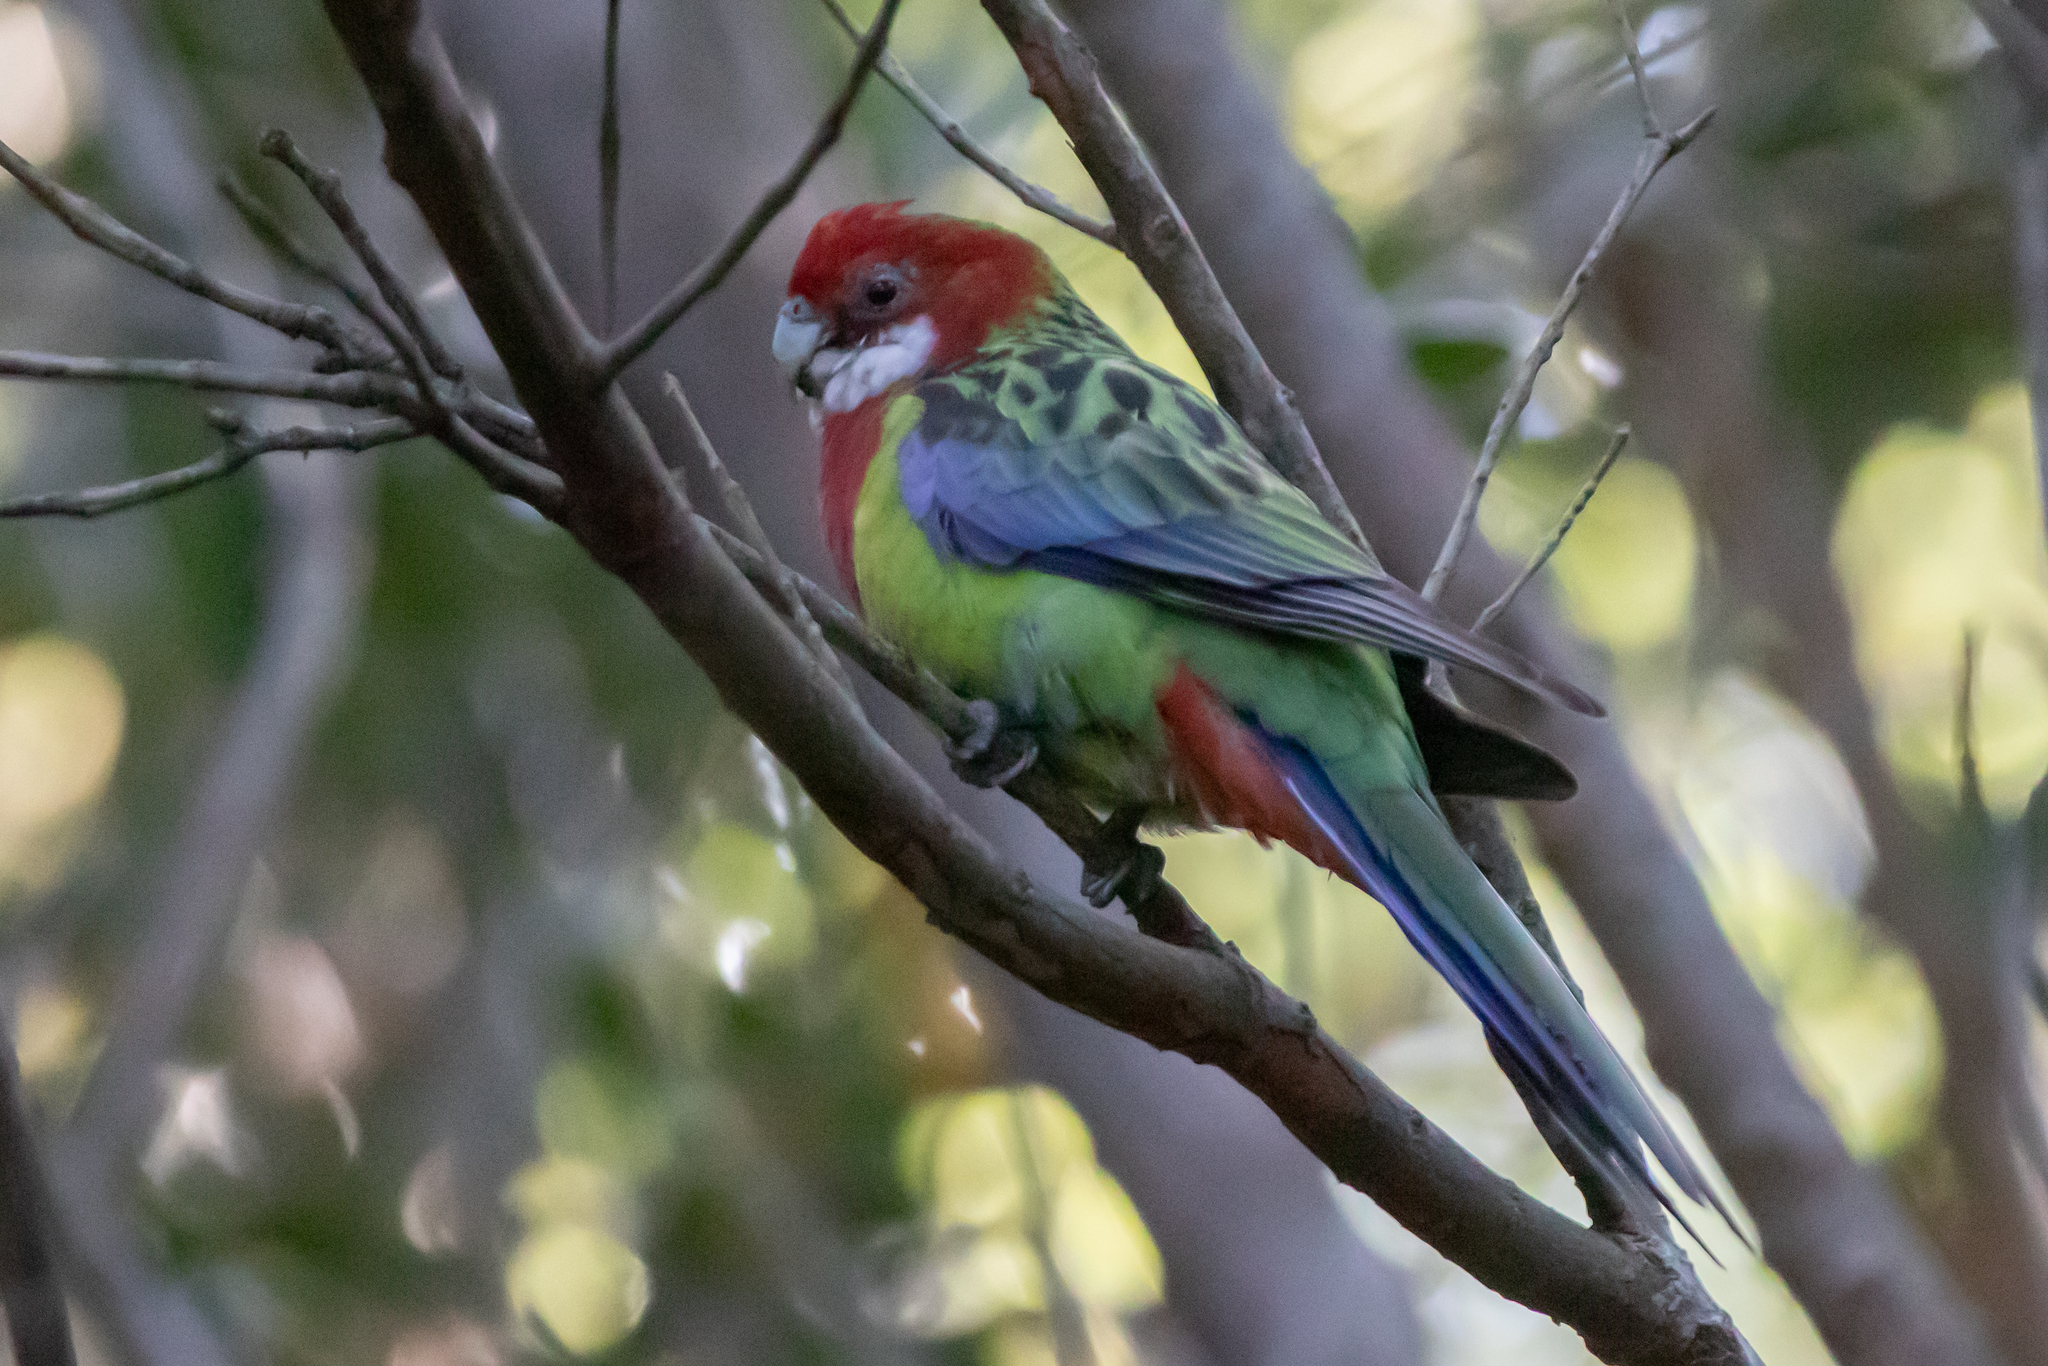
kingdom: Animalia
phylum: Chordata
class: Aves
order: Psittaciformes
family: Psittacidae
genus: Platycercus
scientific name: Platycercus eximius
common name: Eastern rosella
